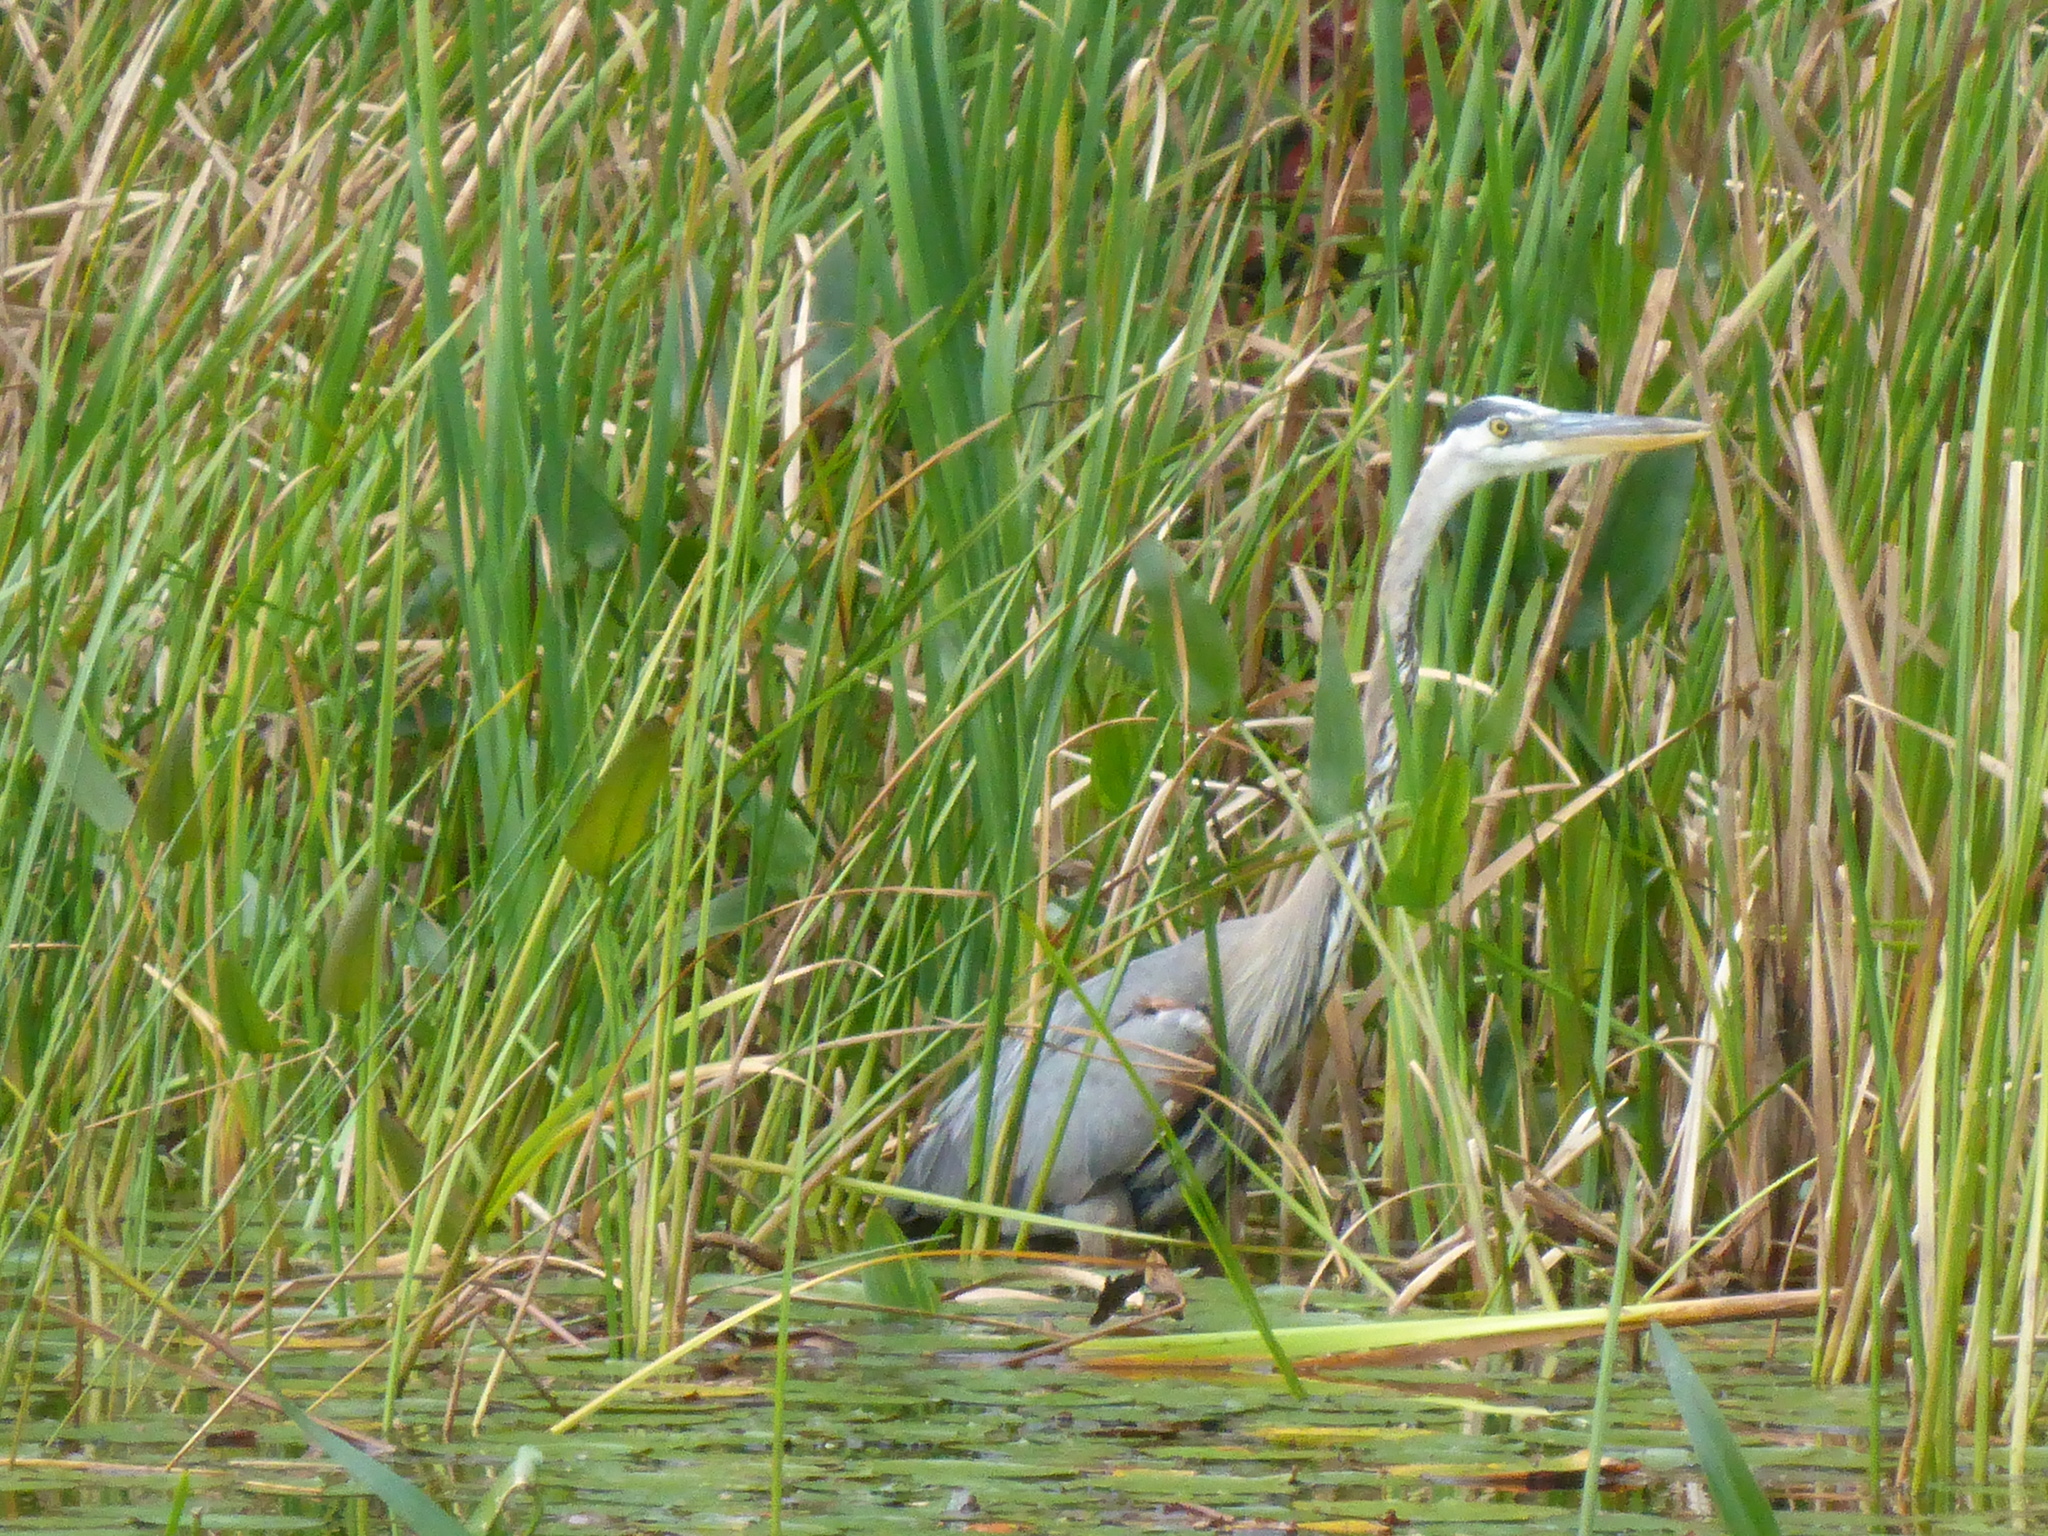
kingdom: Animalia
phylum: Chordata
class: Aves
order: Pelecaniformes
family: Ardeidae
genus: Ardea
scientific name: Ardea herodias
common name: Great blue heron
